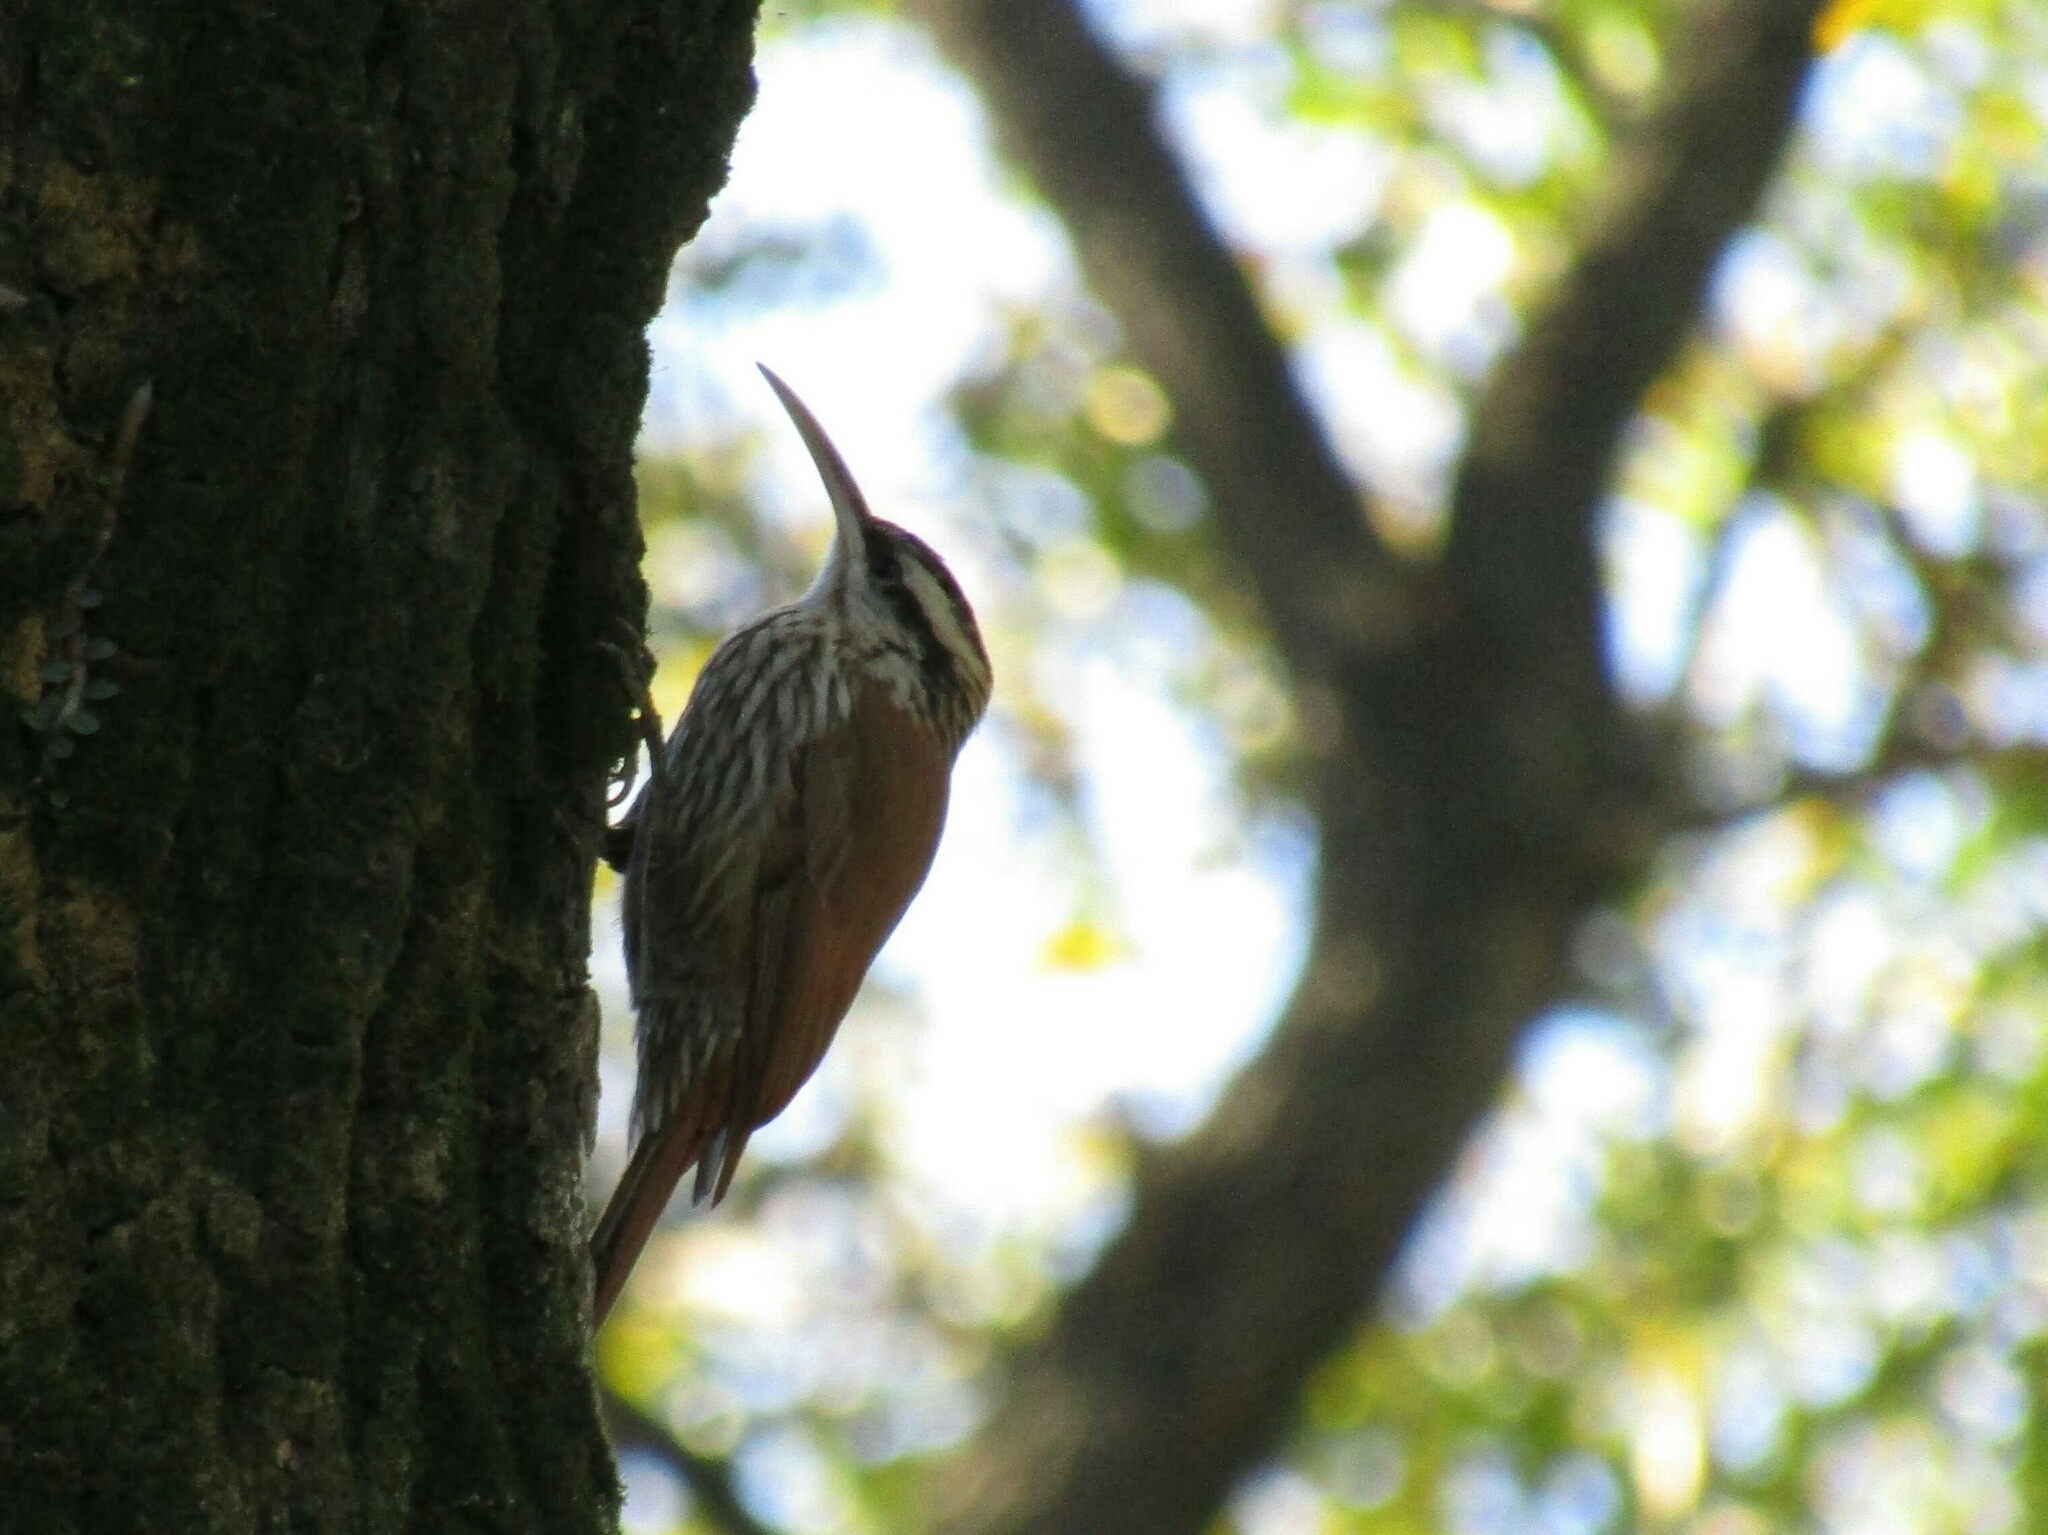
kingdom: Animalia
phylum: Chordata
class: Aves
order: Passeriformes
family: Furnariidae
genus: Lepidocolaptes
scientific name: Lepidocolaptes angustirostris
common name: Narrow-billed woodcreeper
